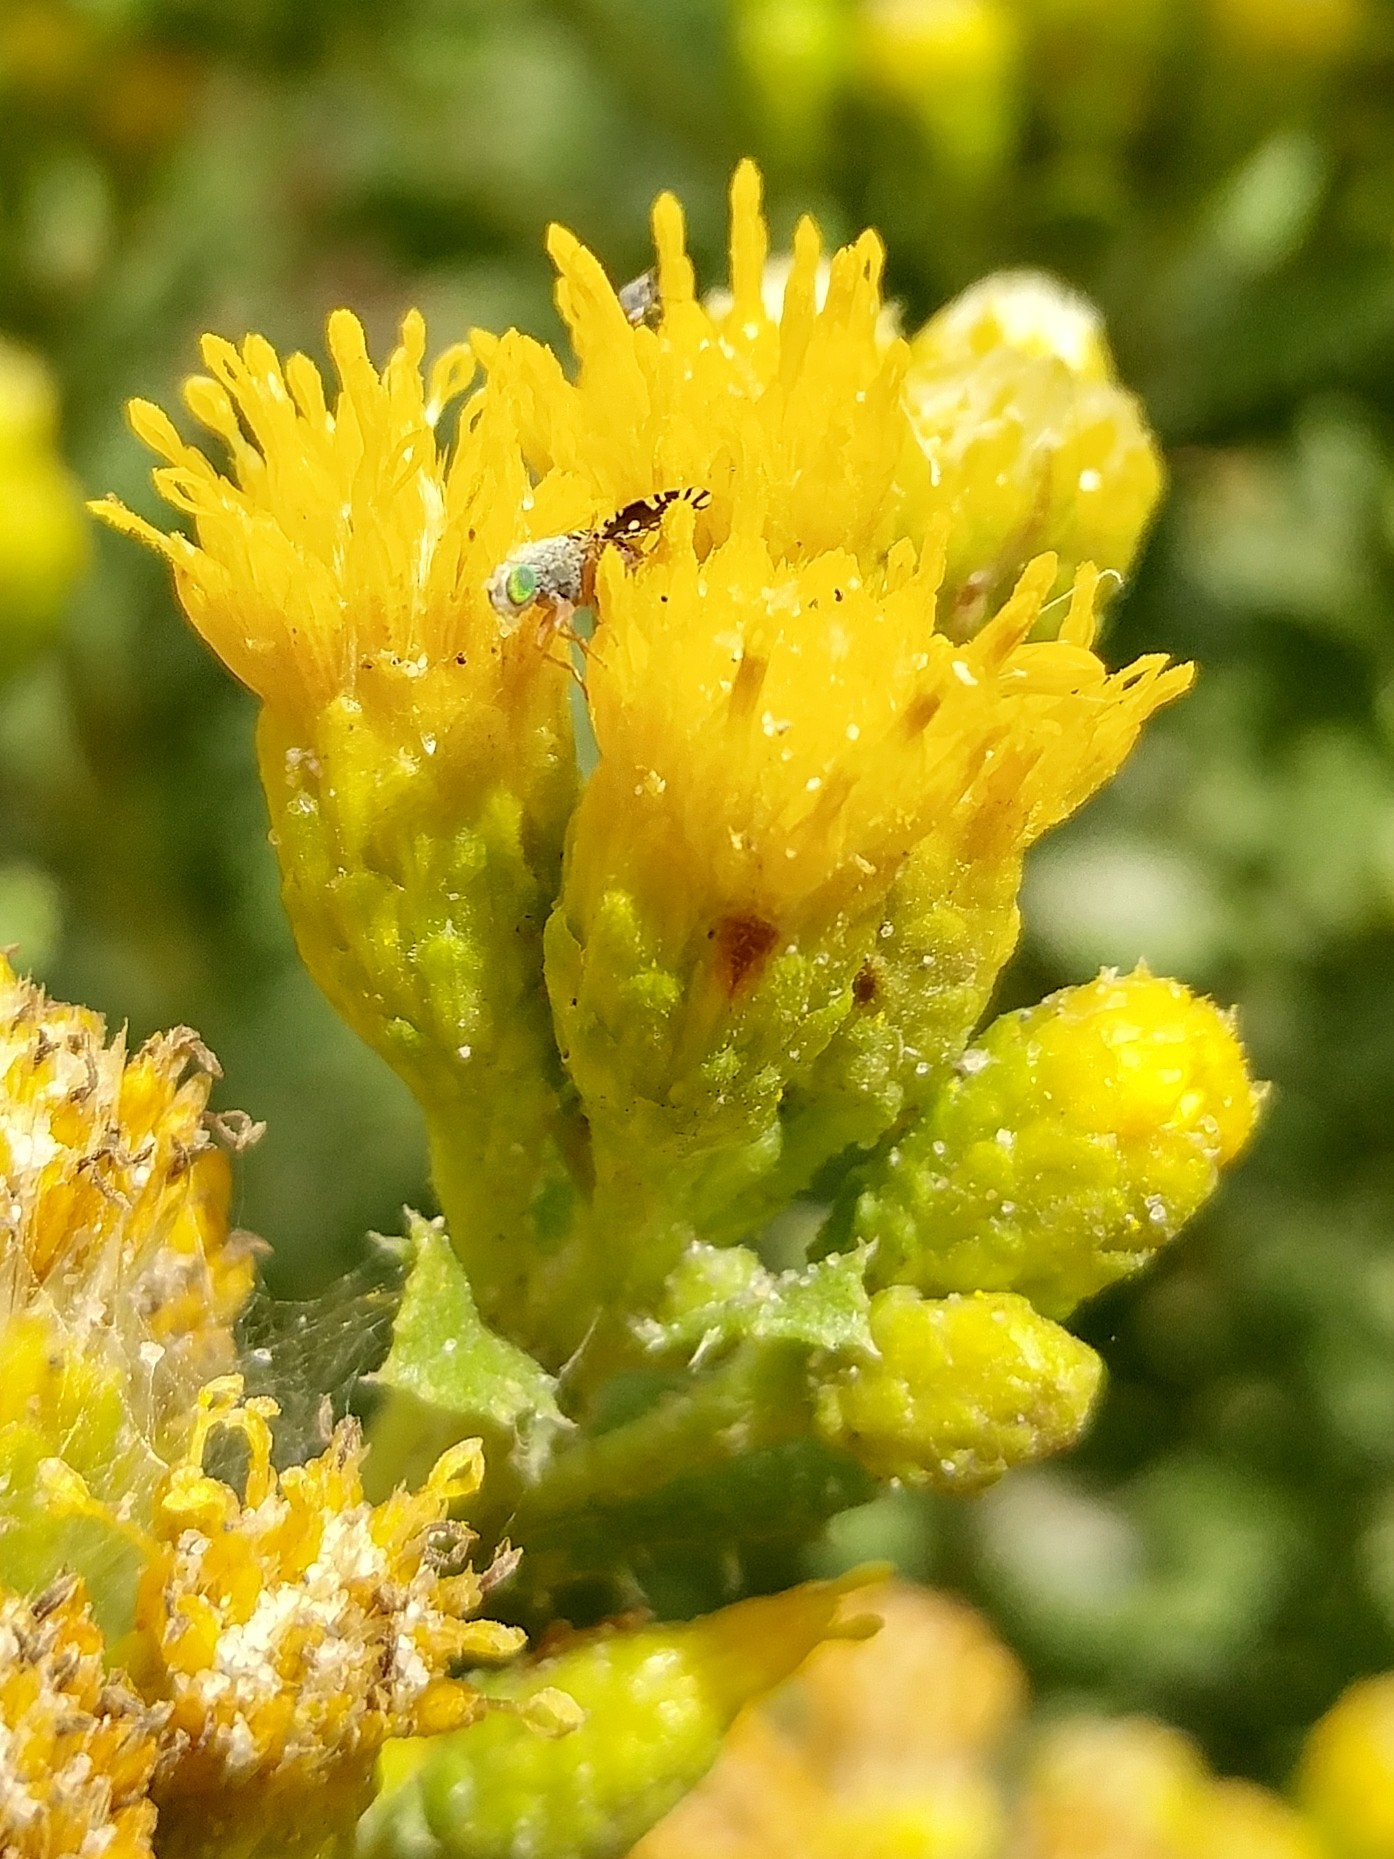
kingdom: Animalia
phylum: Arthropoda
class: Insecta
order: Diptera
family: Tephritidae
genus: Euaresta
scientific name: Euaresta stelligera
